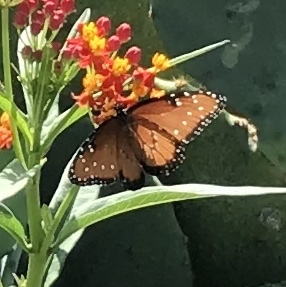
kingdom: Animalia
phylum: Arthropoda
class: Insecta
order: Lepidoptera
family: Nymphalidae
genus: Danaus
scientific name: Danaus gilippus
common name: Queen
